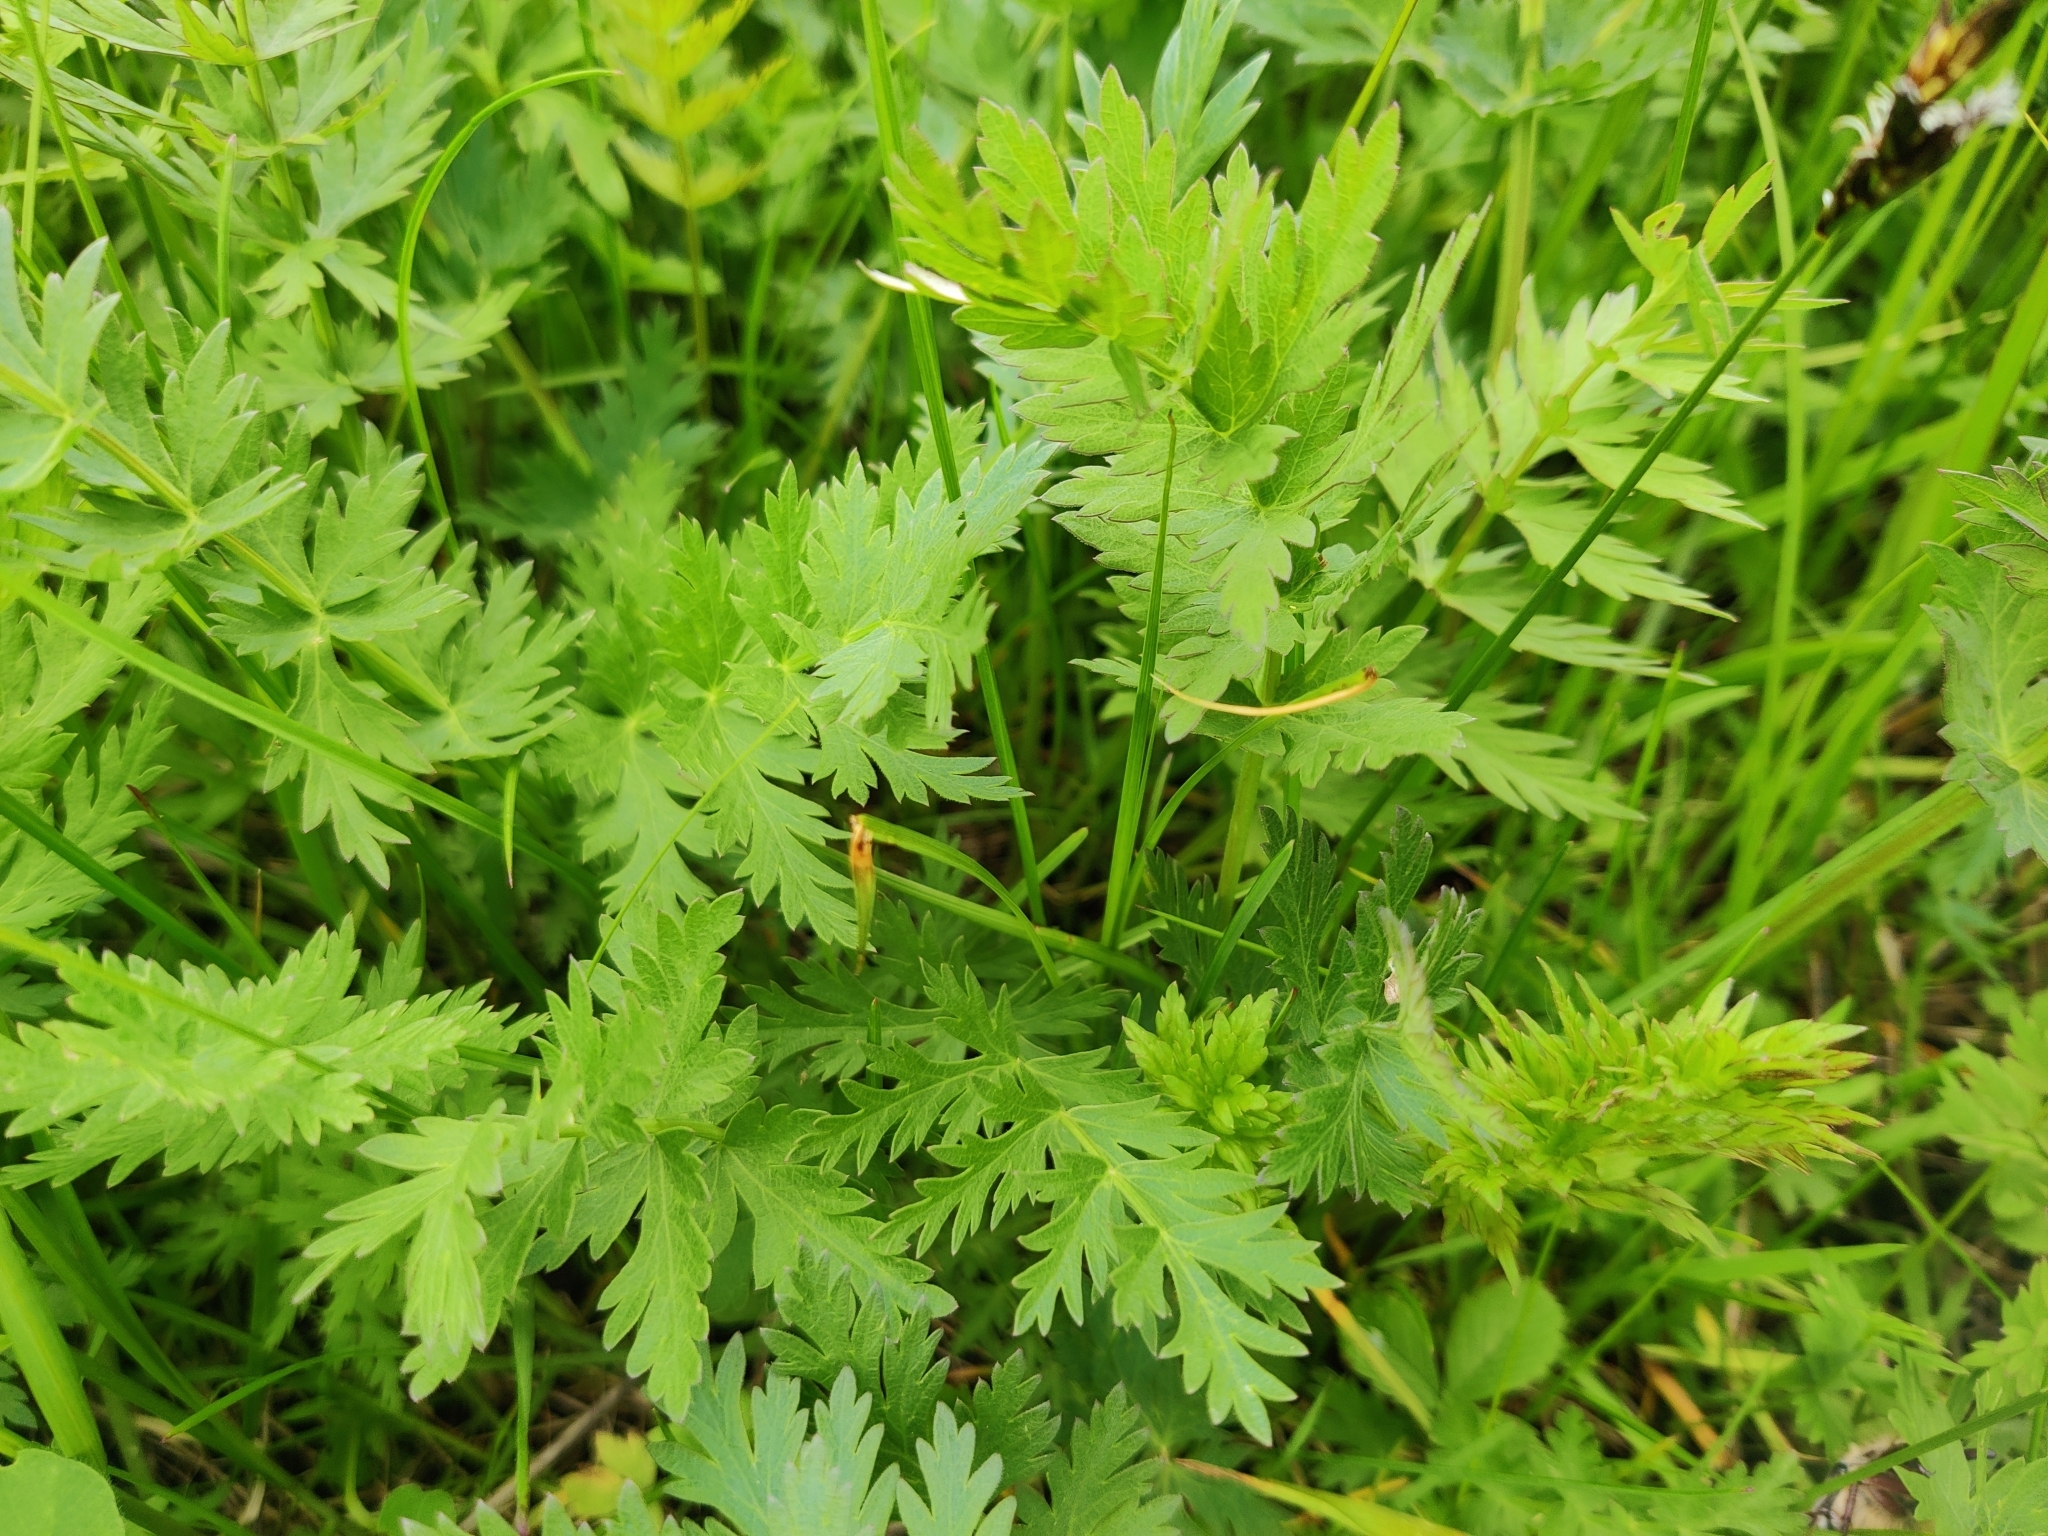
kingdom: Plantae
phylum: Tracheophyta
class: Magnoliopsida
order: Apiales
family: Apiaceae
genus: Seseli
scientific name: Seseli libanotis
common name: Mooncarrot
